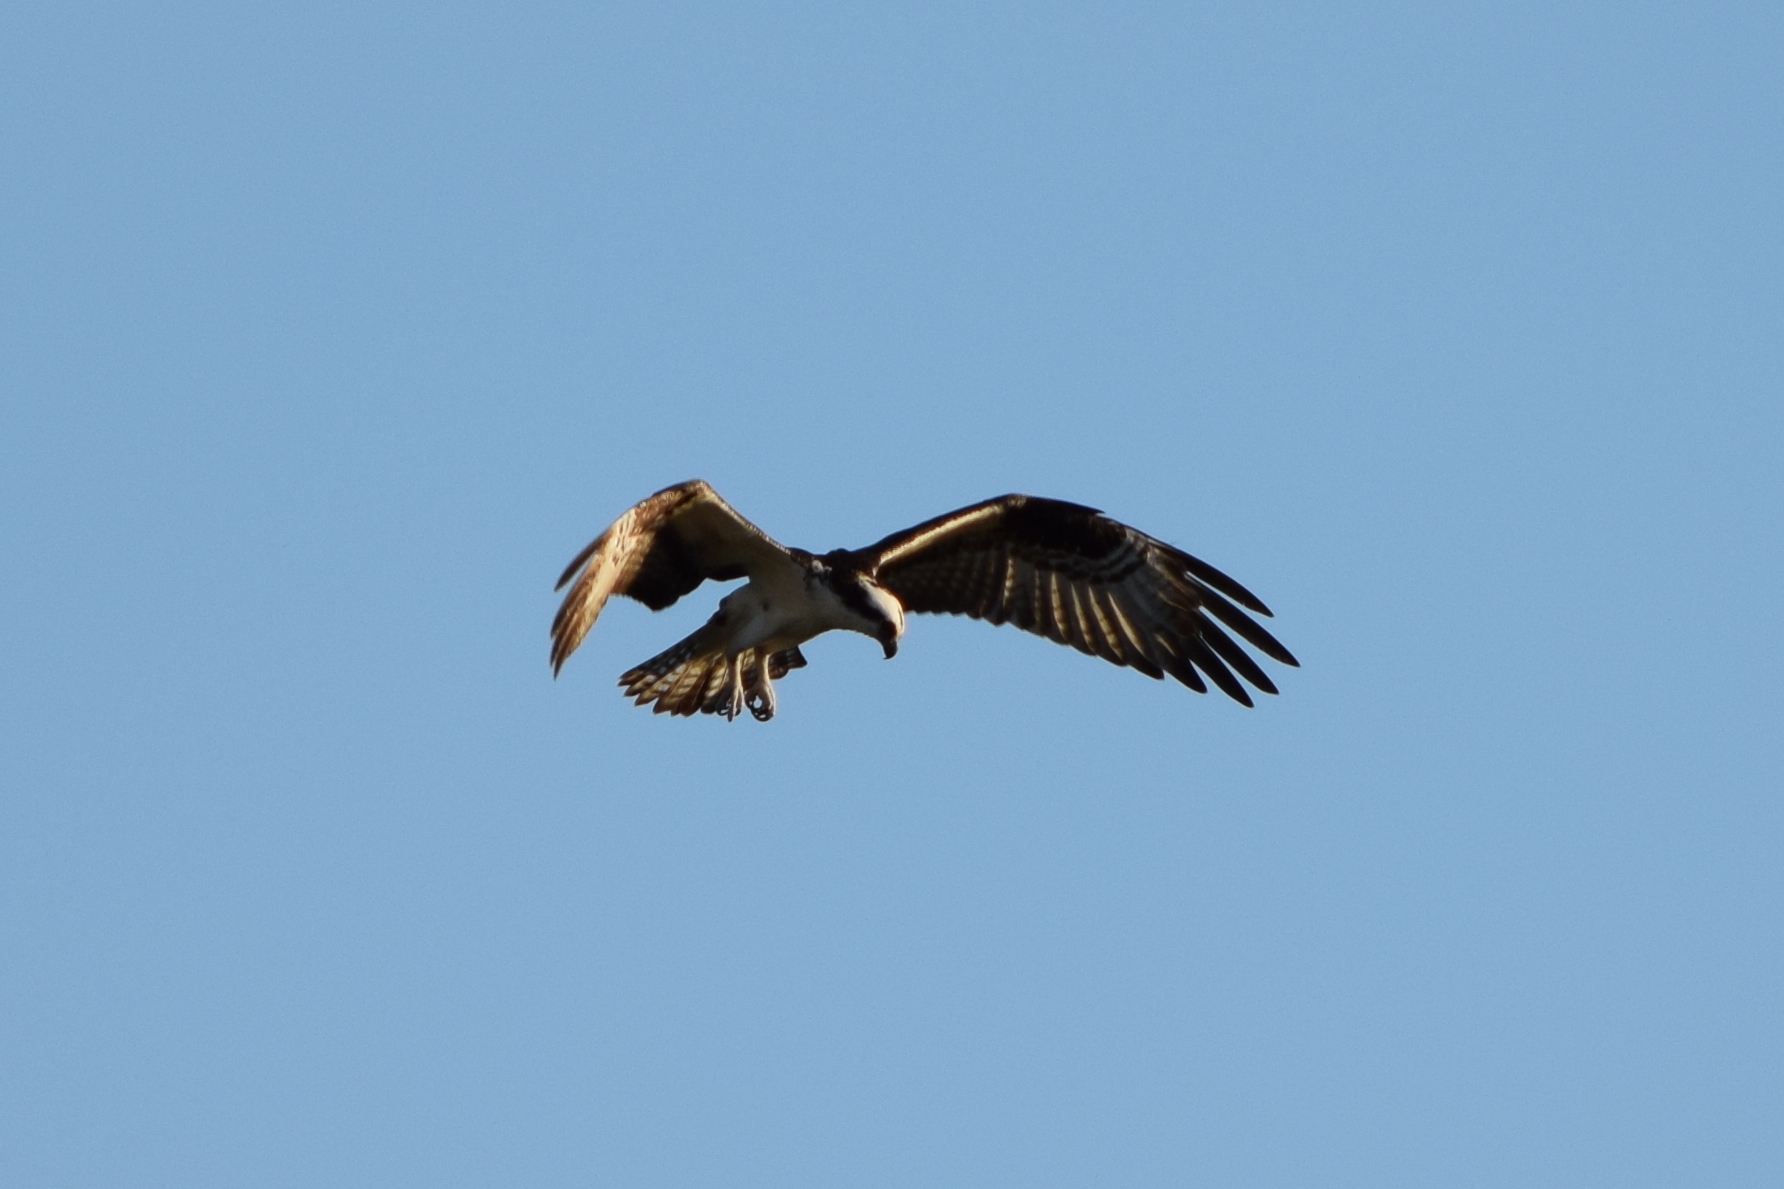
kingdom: Animalia
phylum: Chordata
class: Aves
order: Accipitriformes
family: Pandionidae
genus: Pandion
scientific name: Pandion haliaetus
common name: Osprey
